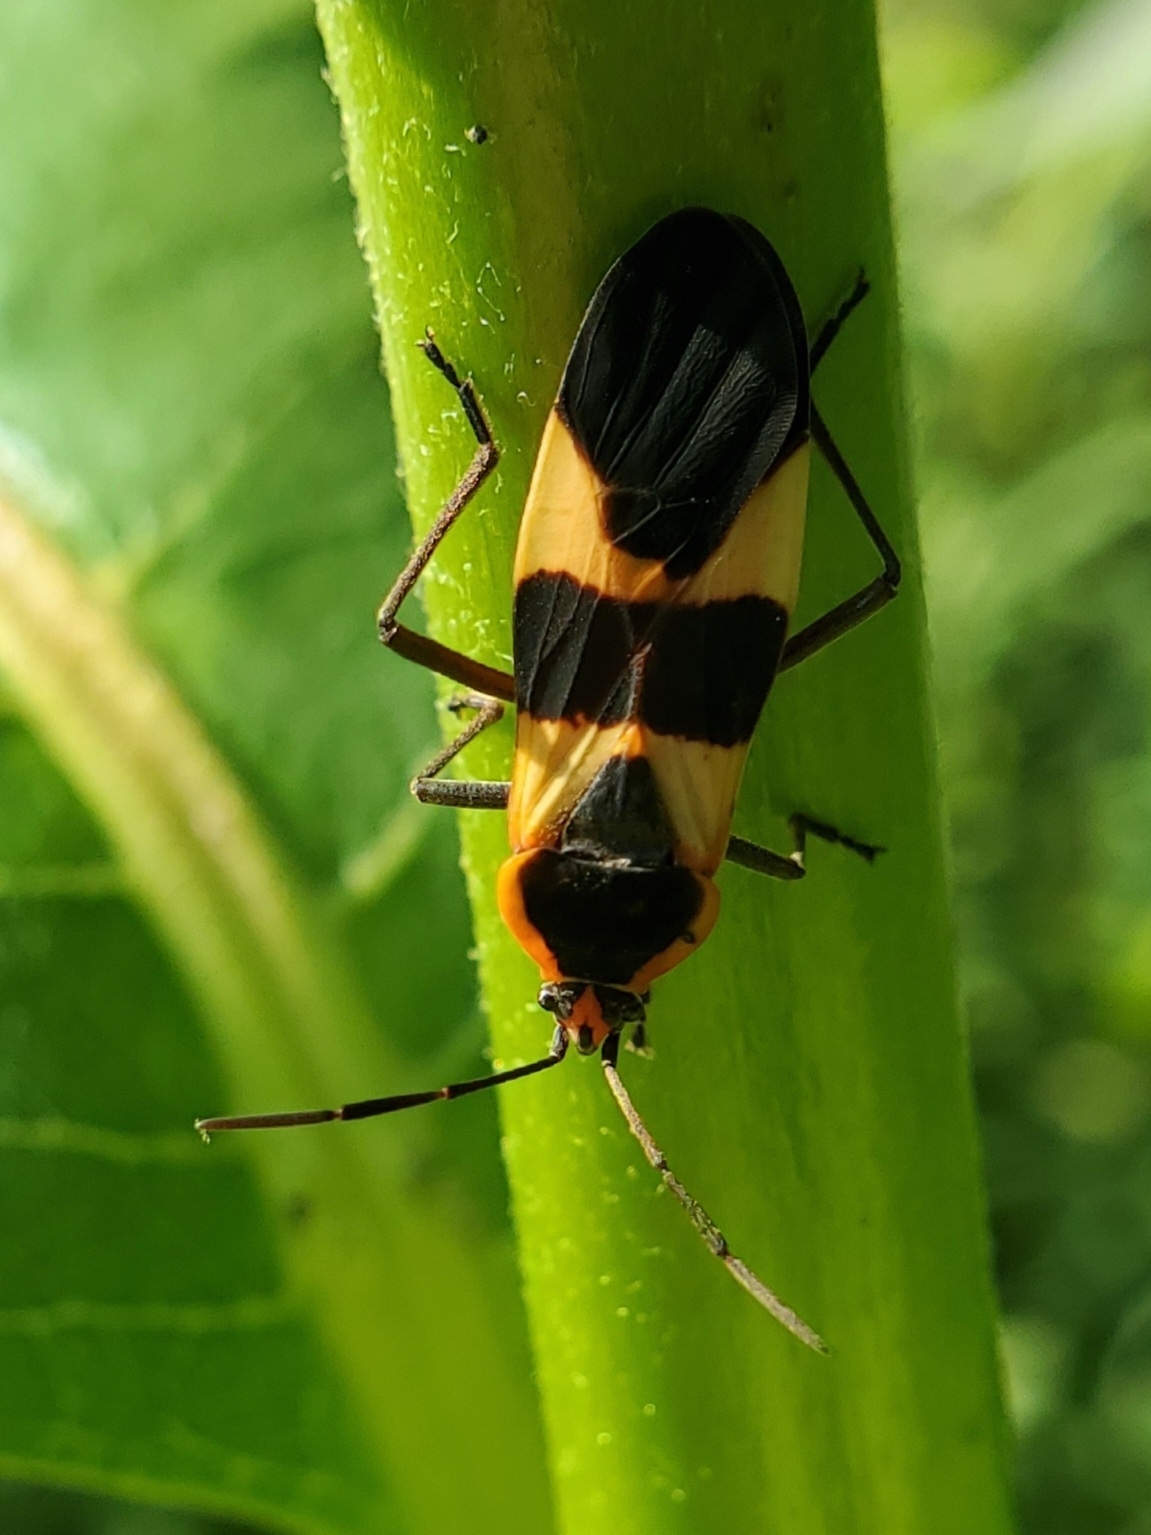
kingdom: Animalia
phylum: Arthropoda
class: Insecta
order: Hemiptera
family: Lygaeidae
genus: Oncopeltus
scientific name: Oncopeltus fasciatus
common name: Large milkweed bug
